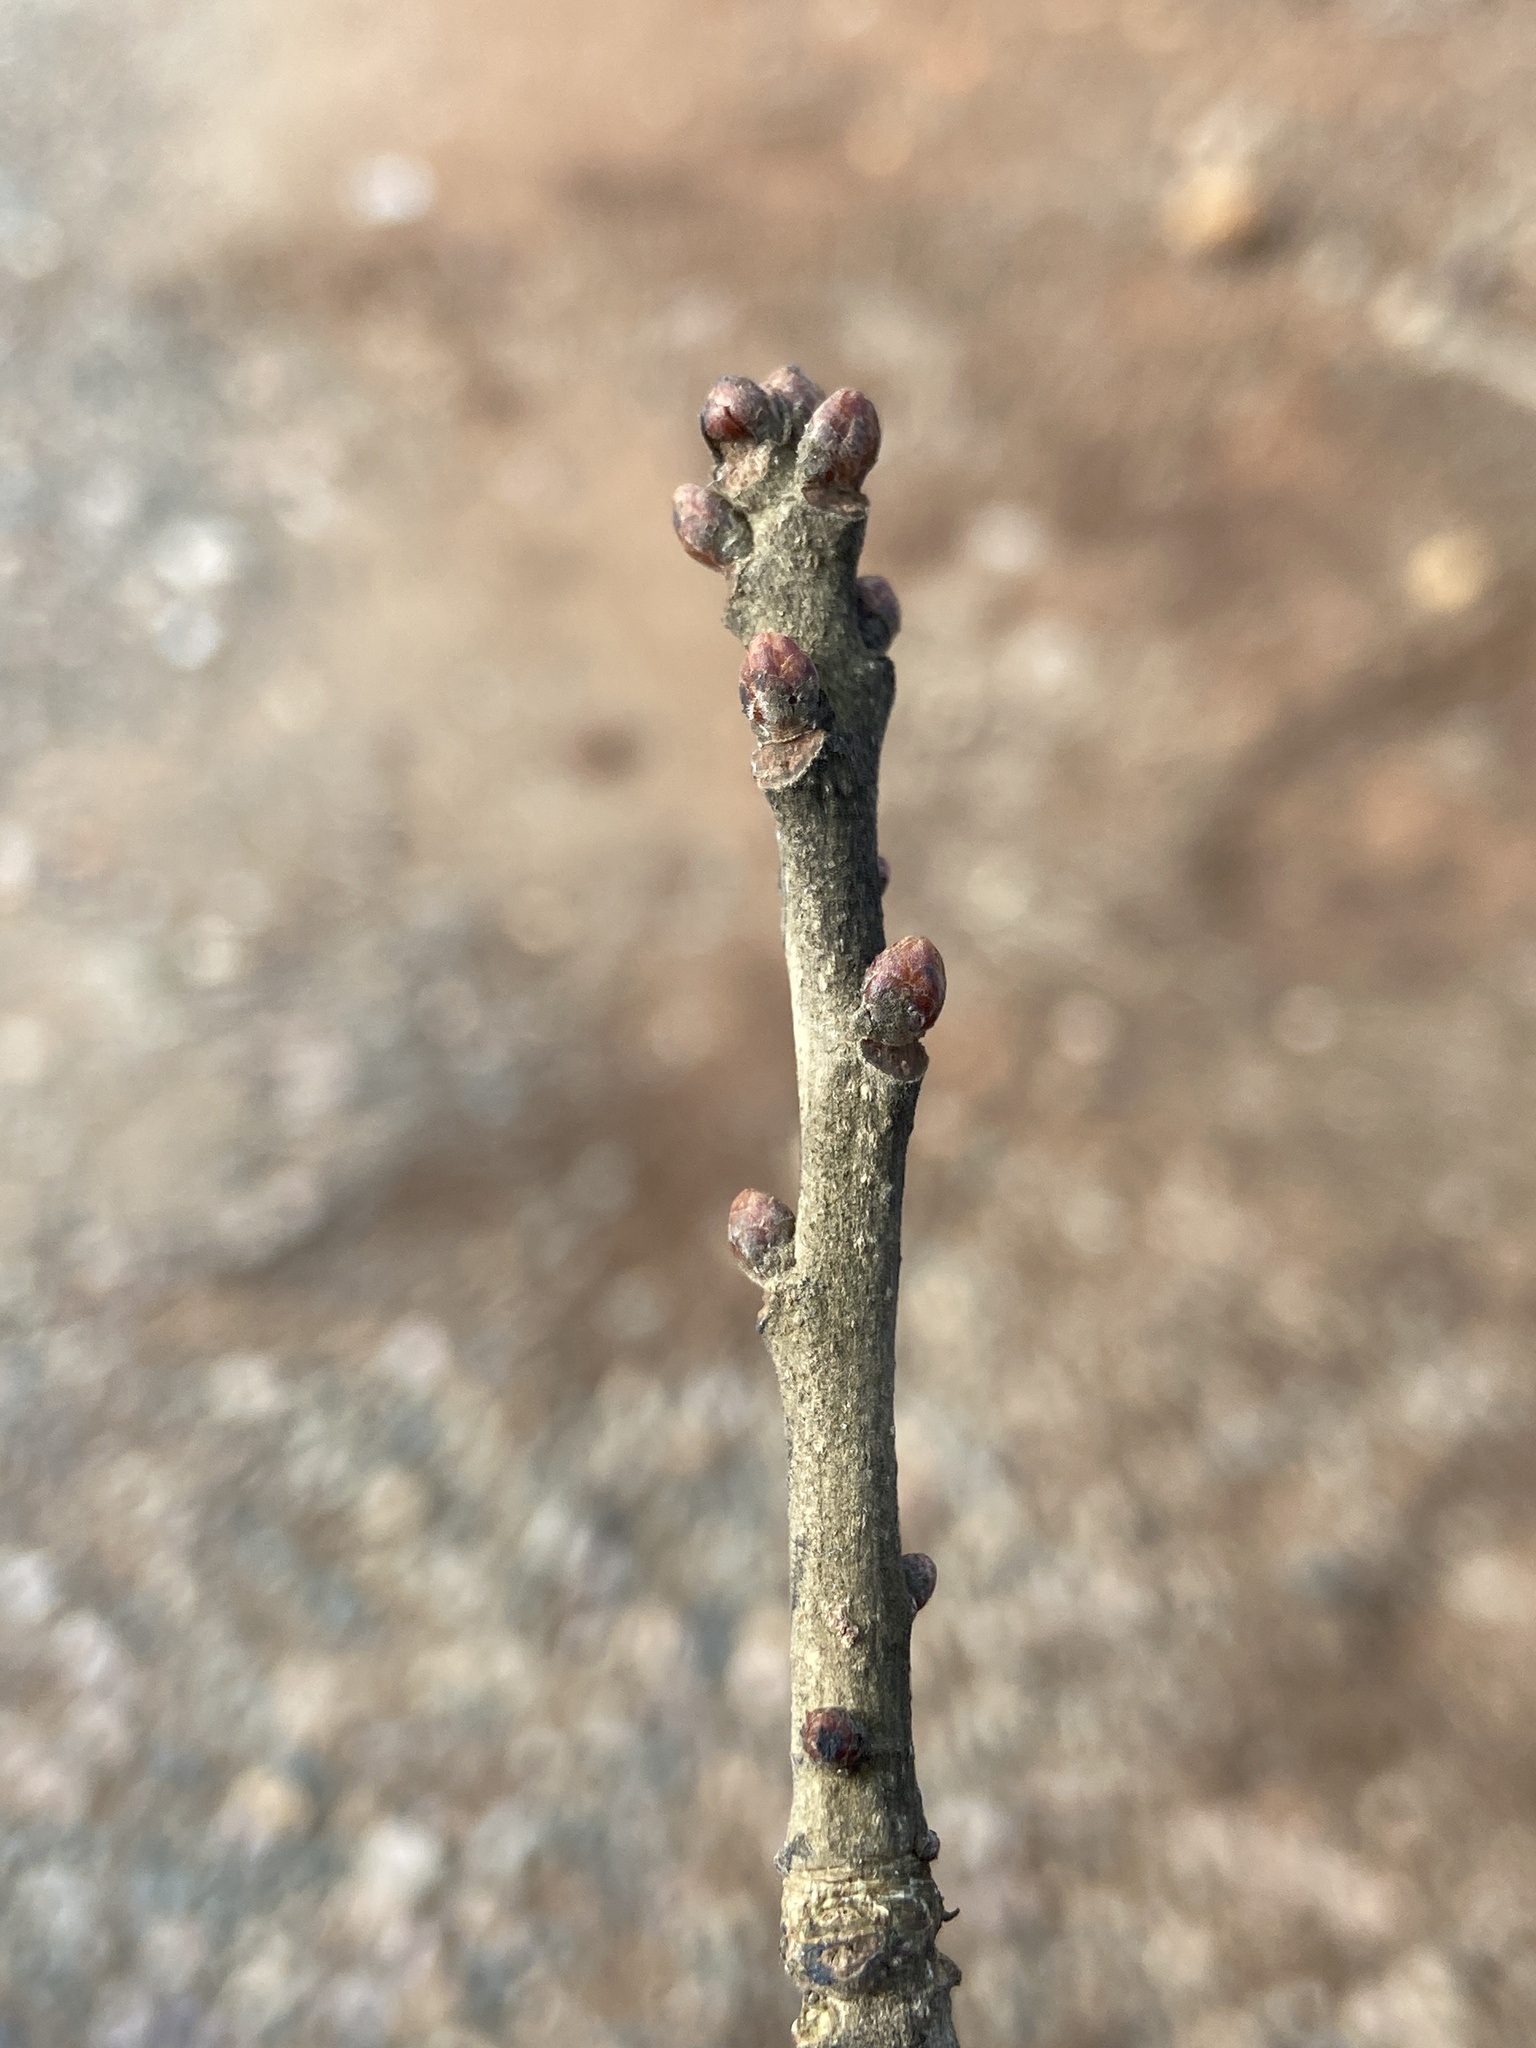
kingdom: Plantae
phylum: Tracheophyta
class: Magnoliopsida
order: Fagales
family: Fagaceae
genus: Quercus
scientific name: Quercus stellata
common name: Post oak
